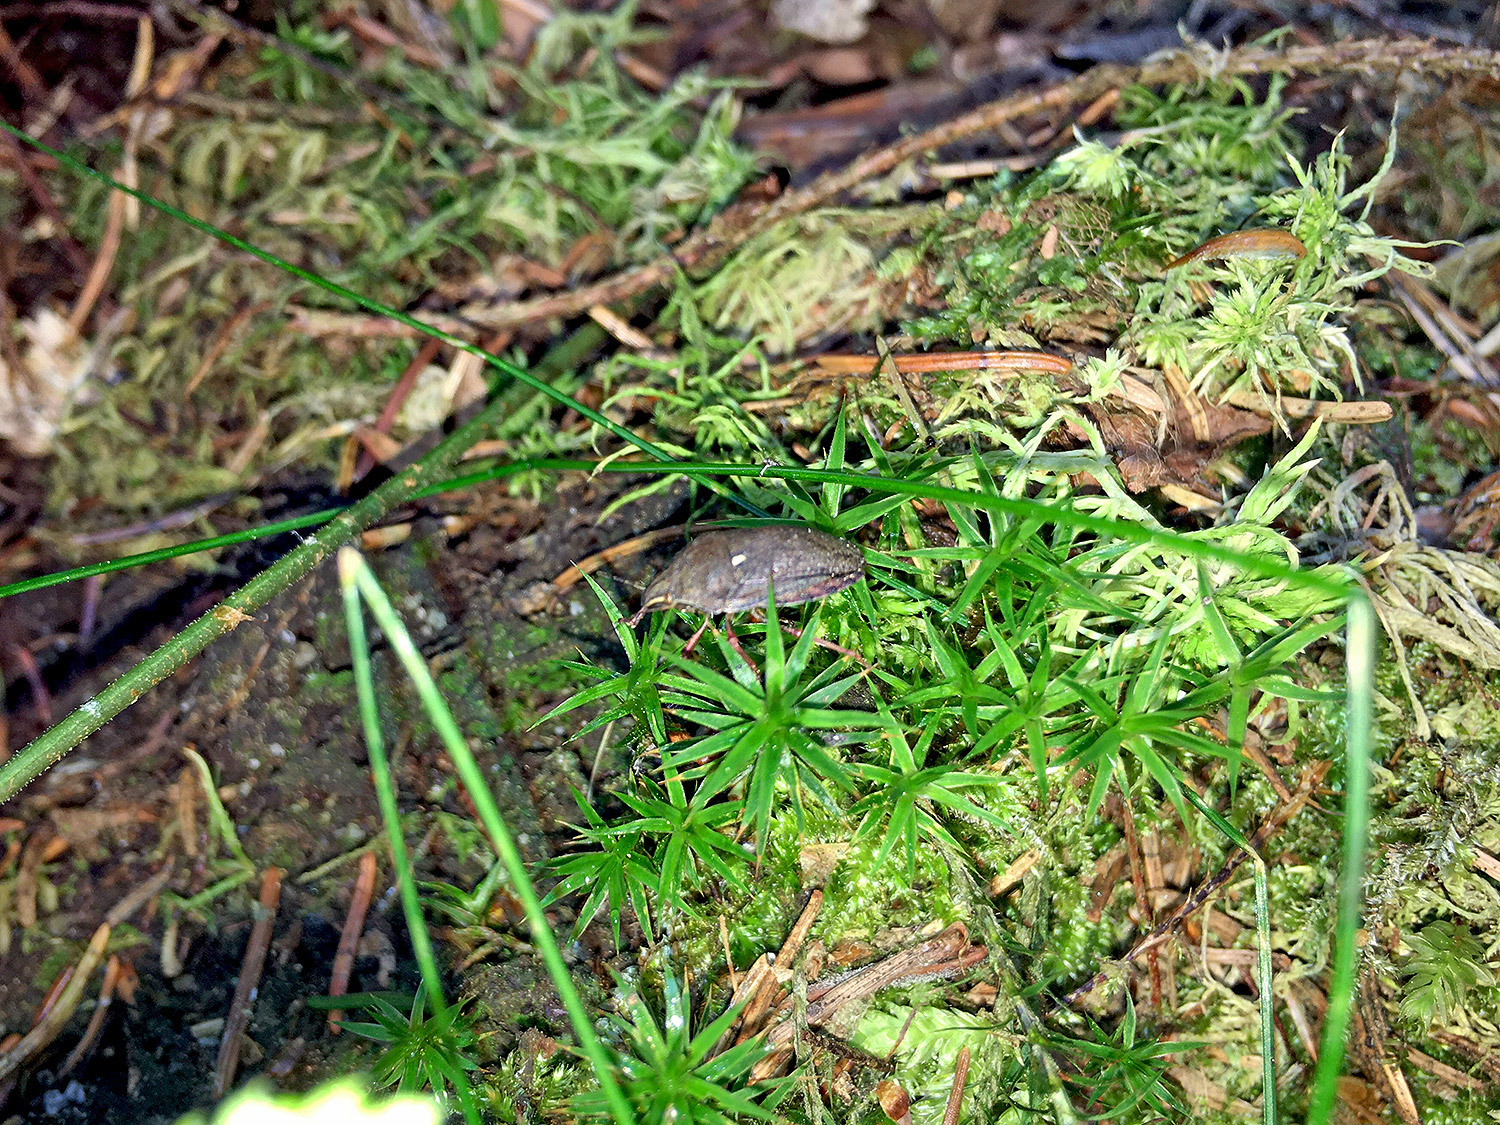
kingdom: Animalia
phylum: Arthropoda
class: Insecta
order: Hemiptera
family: Scutelleridae
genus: Eurygaster
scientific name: Eurygaster testudinaria
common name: Tortoise bug
